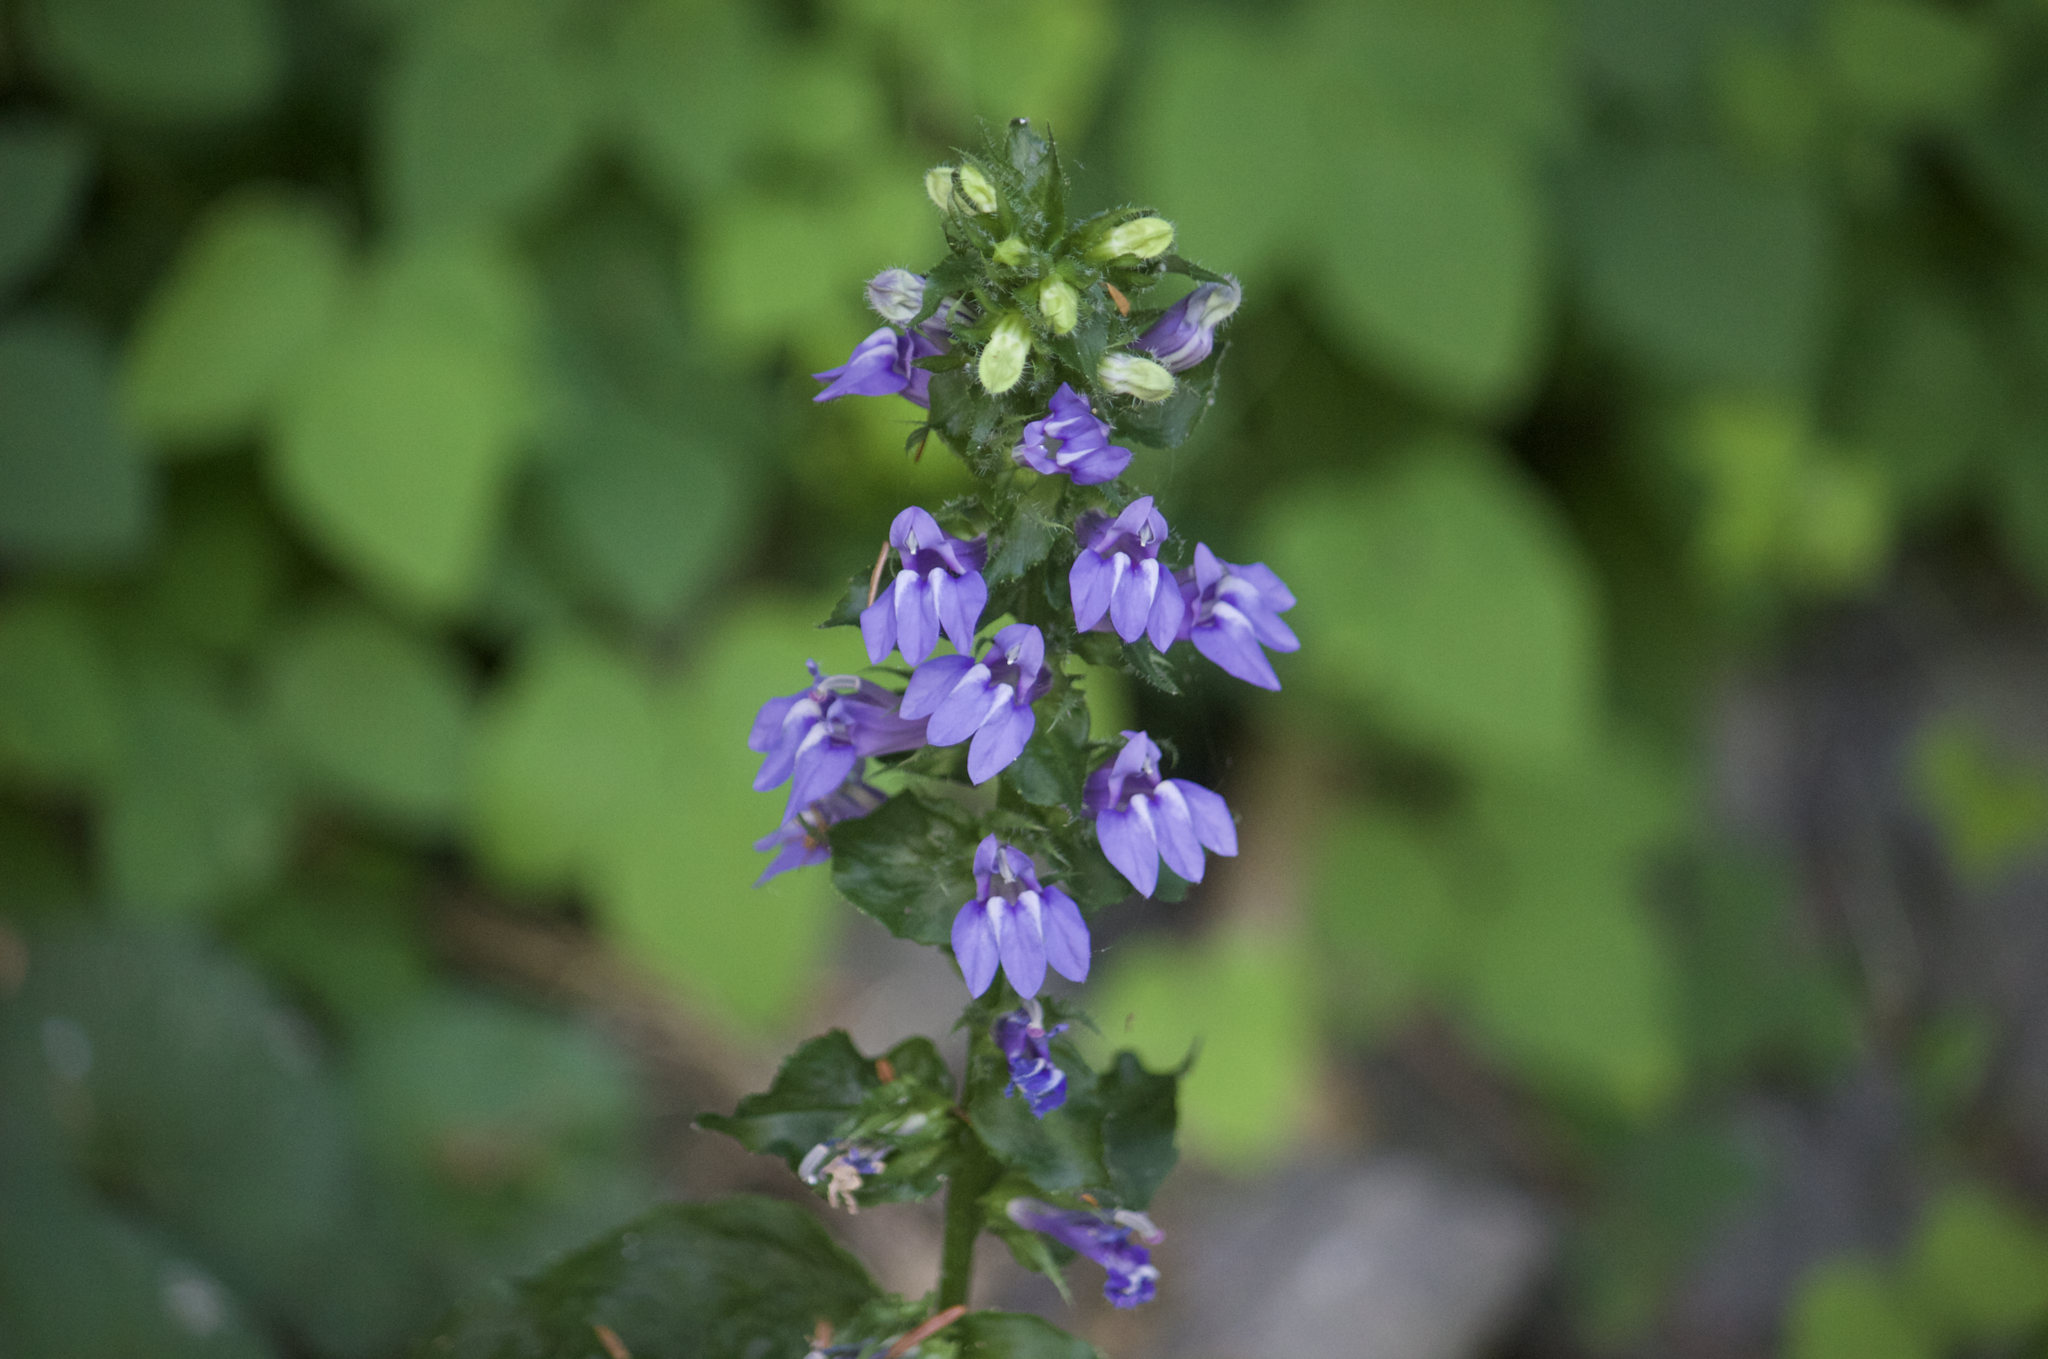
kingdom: Plantae
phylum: Tracheophyta
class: Magnoliopsida
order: Asterales
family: Campanulaceae
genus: Lobelia
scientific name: Lobelia siphilitica
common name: Great lobelia
